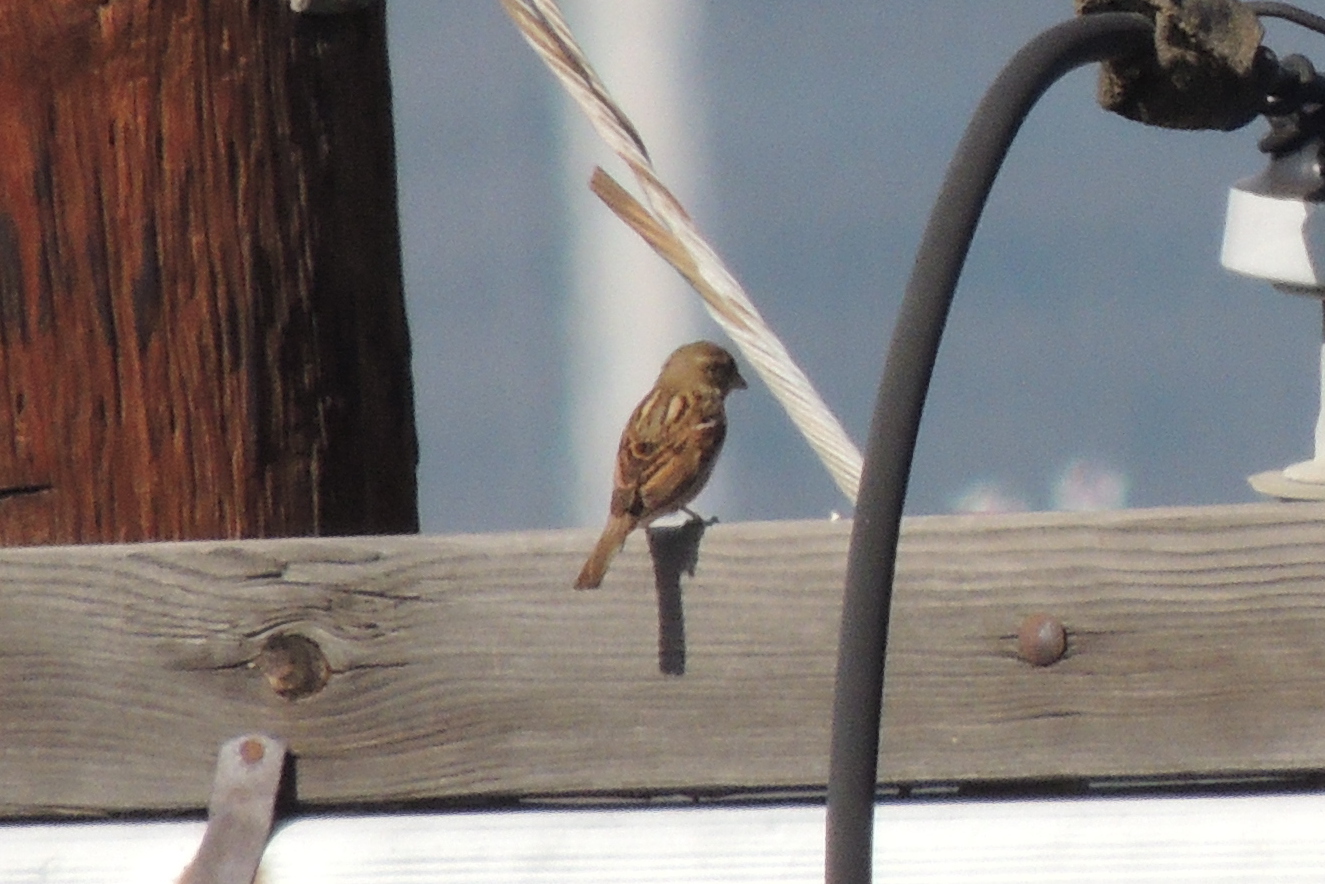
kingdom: Animalia
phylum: Chordata
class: Aves
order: Passeriformes
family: Passeridae
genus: Passer
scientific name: Passer domesticus
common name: House sparrow
